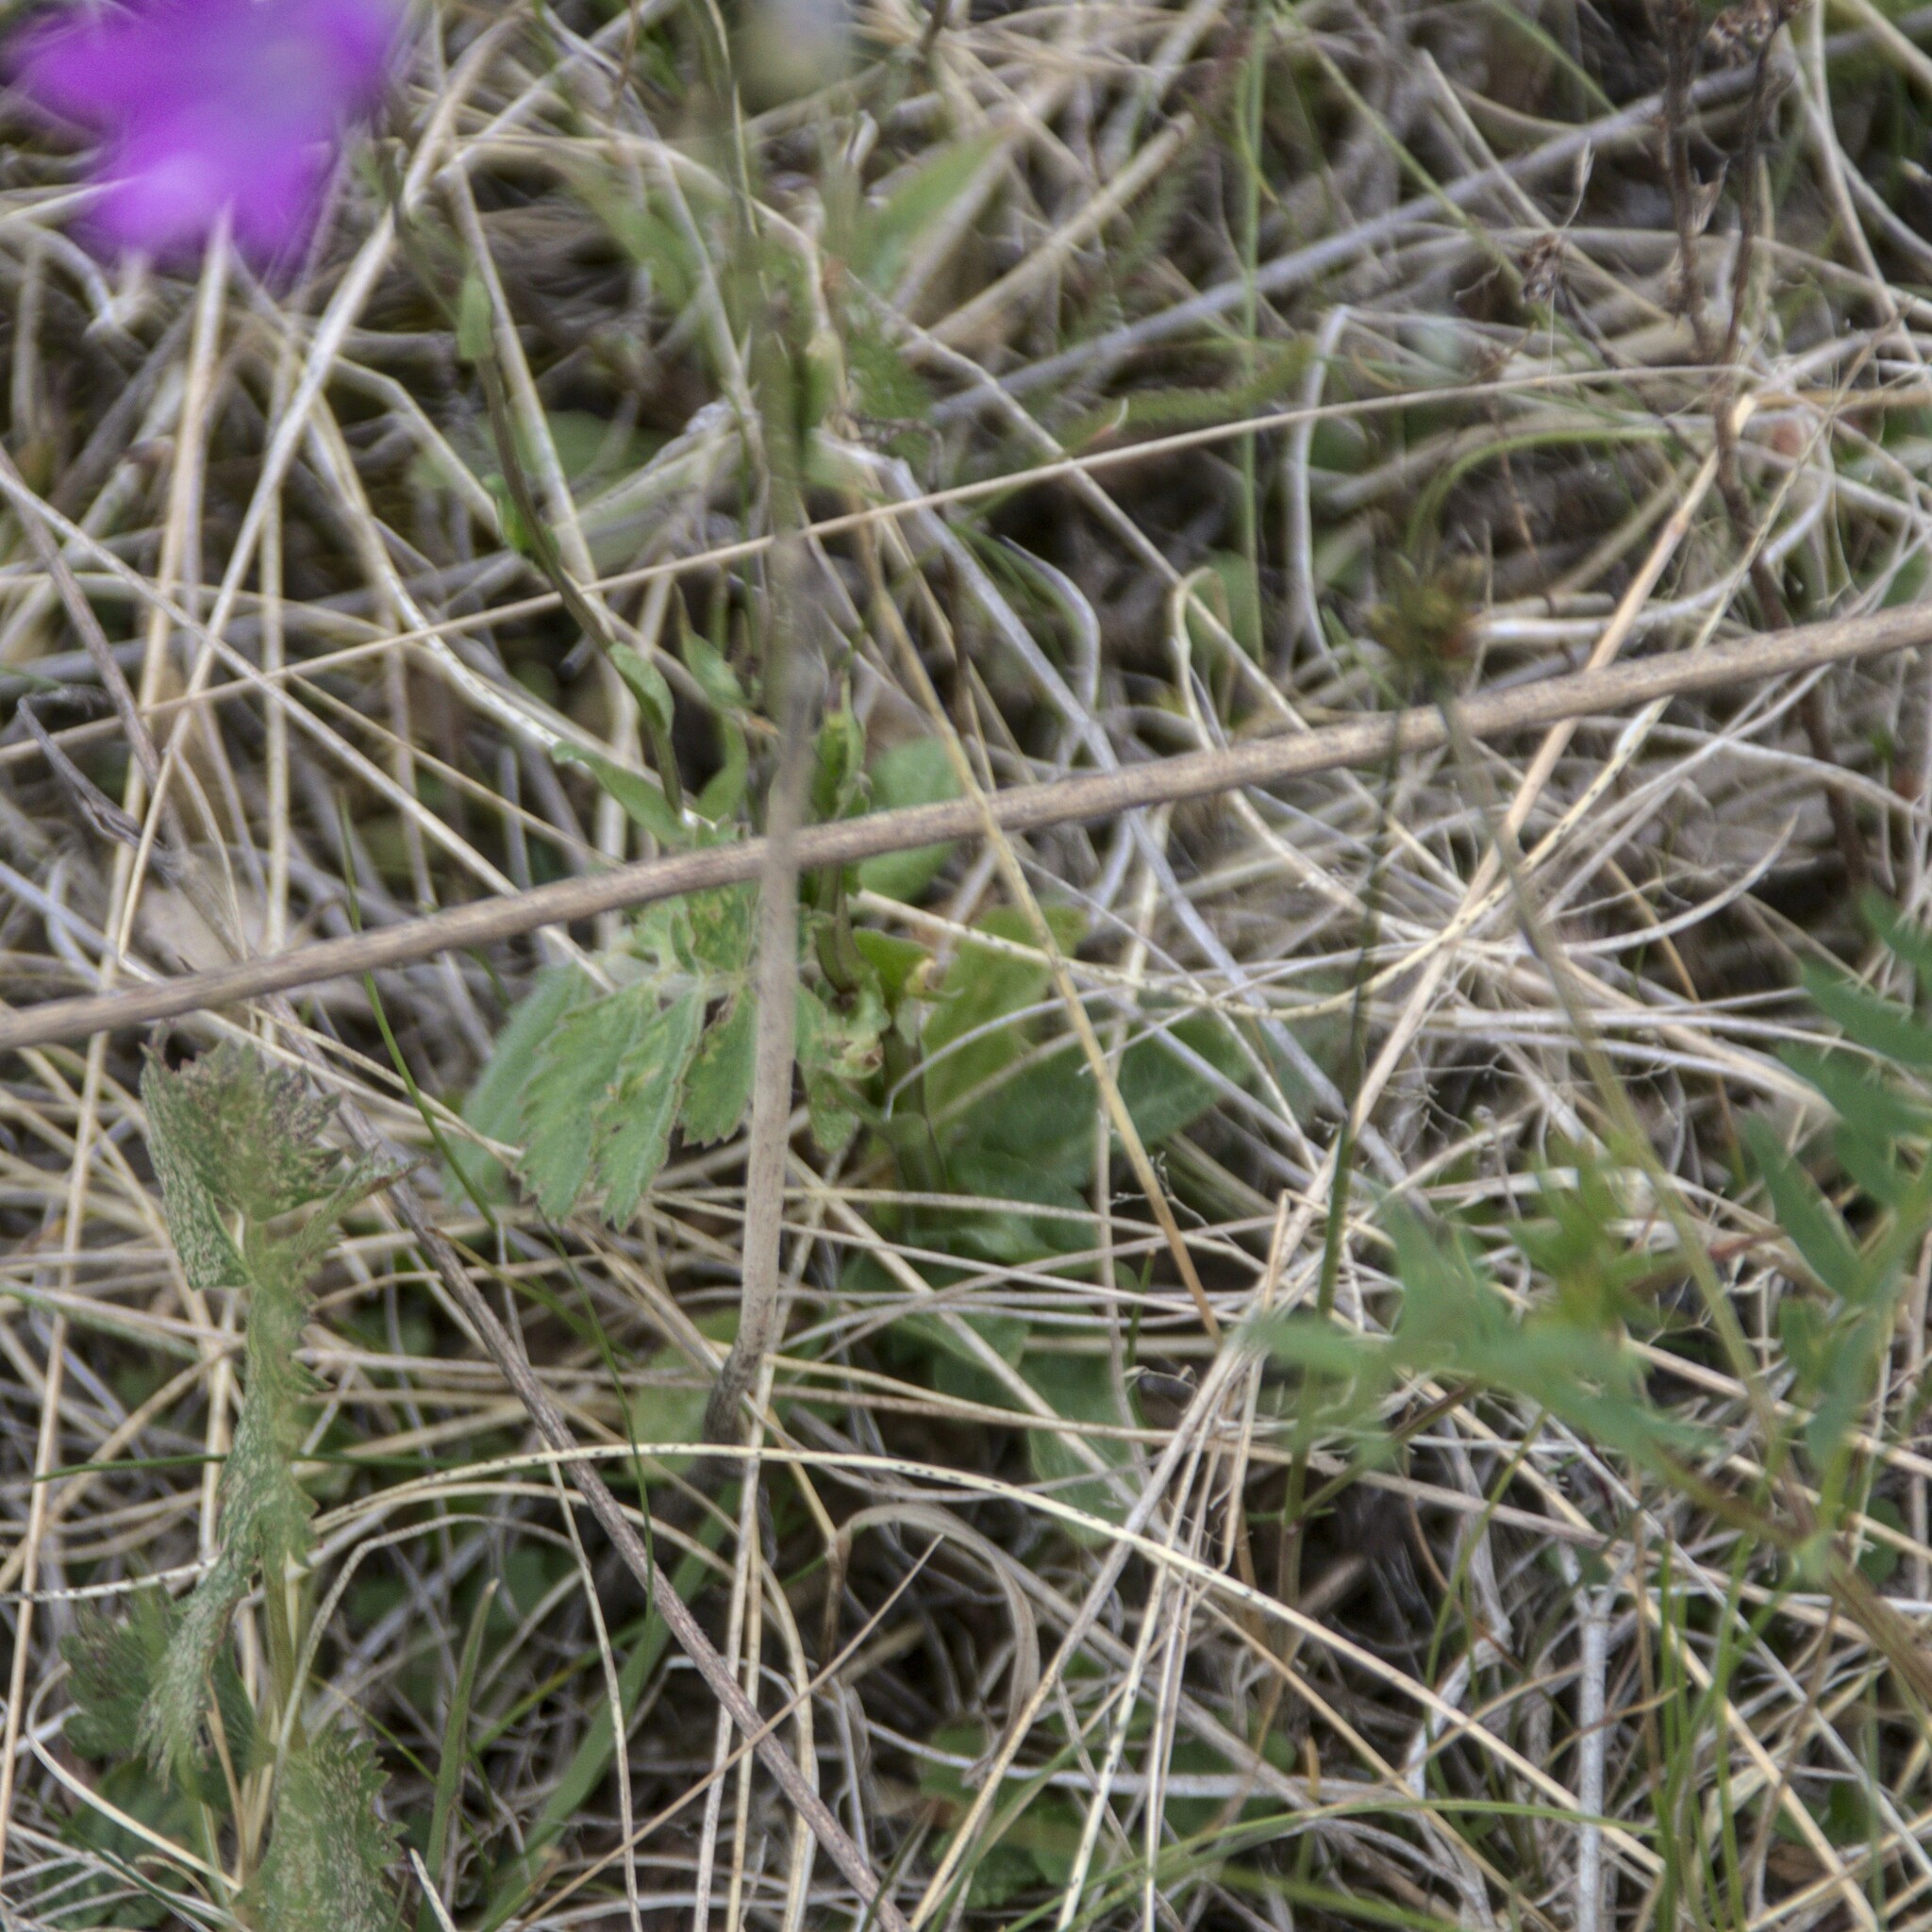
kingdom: Plantae
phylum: Tracheophyta
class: Magnoliopsida
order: Asterales
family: Campanulaceae
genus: Campanula
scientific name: Campanula patula
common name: Spreading bellflower
